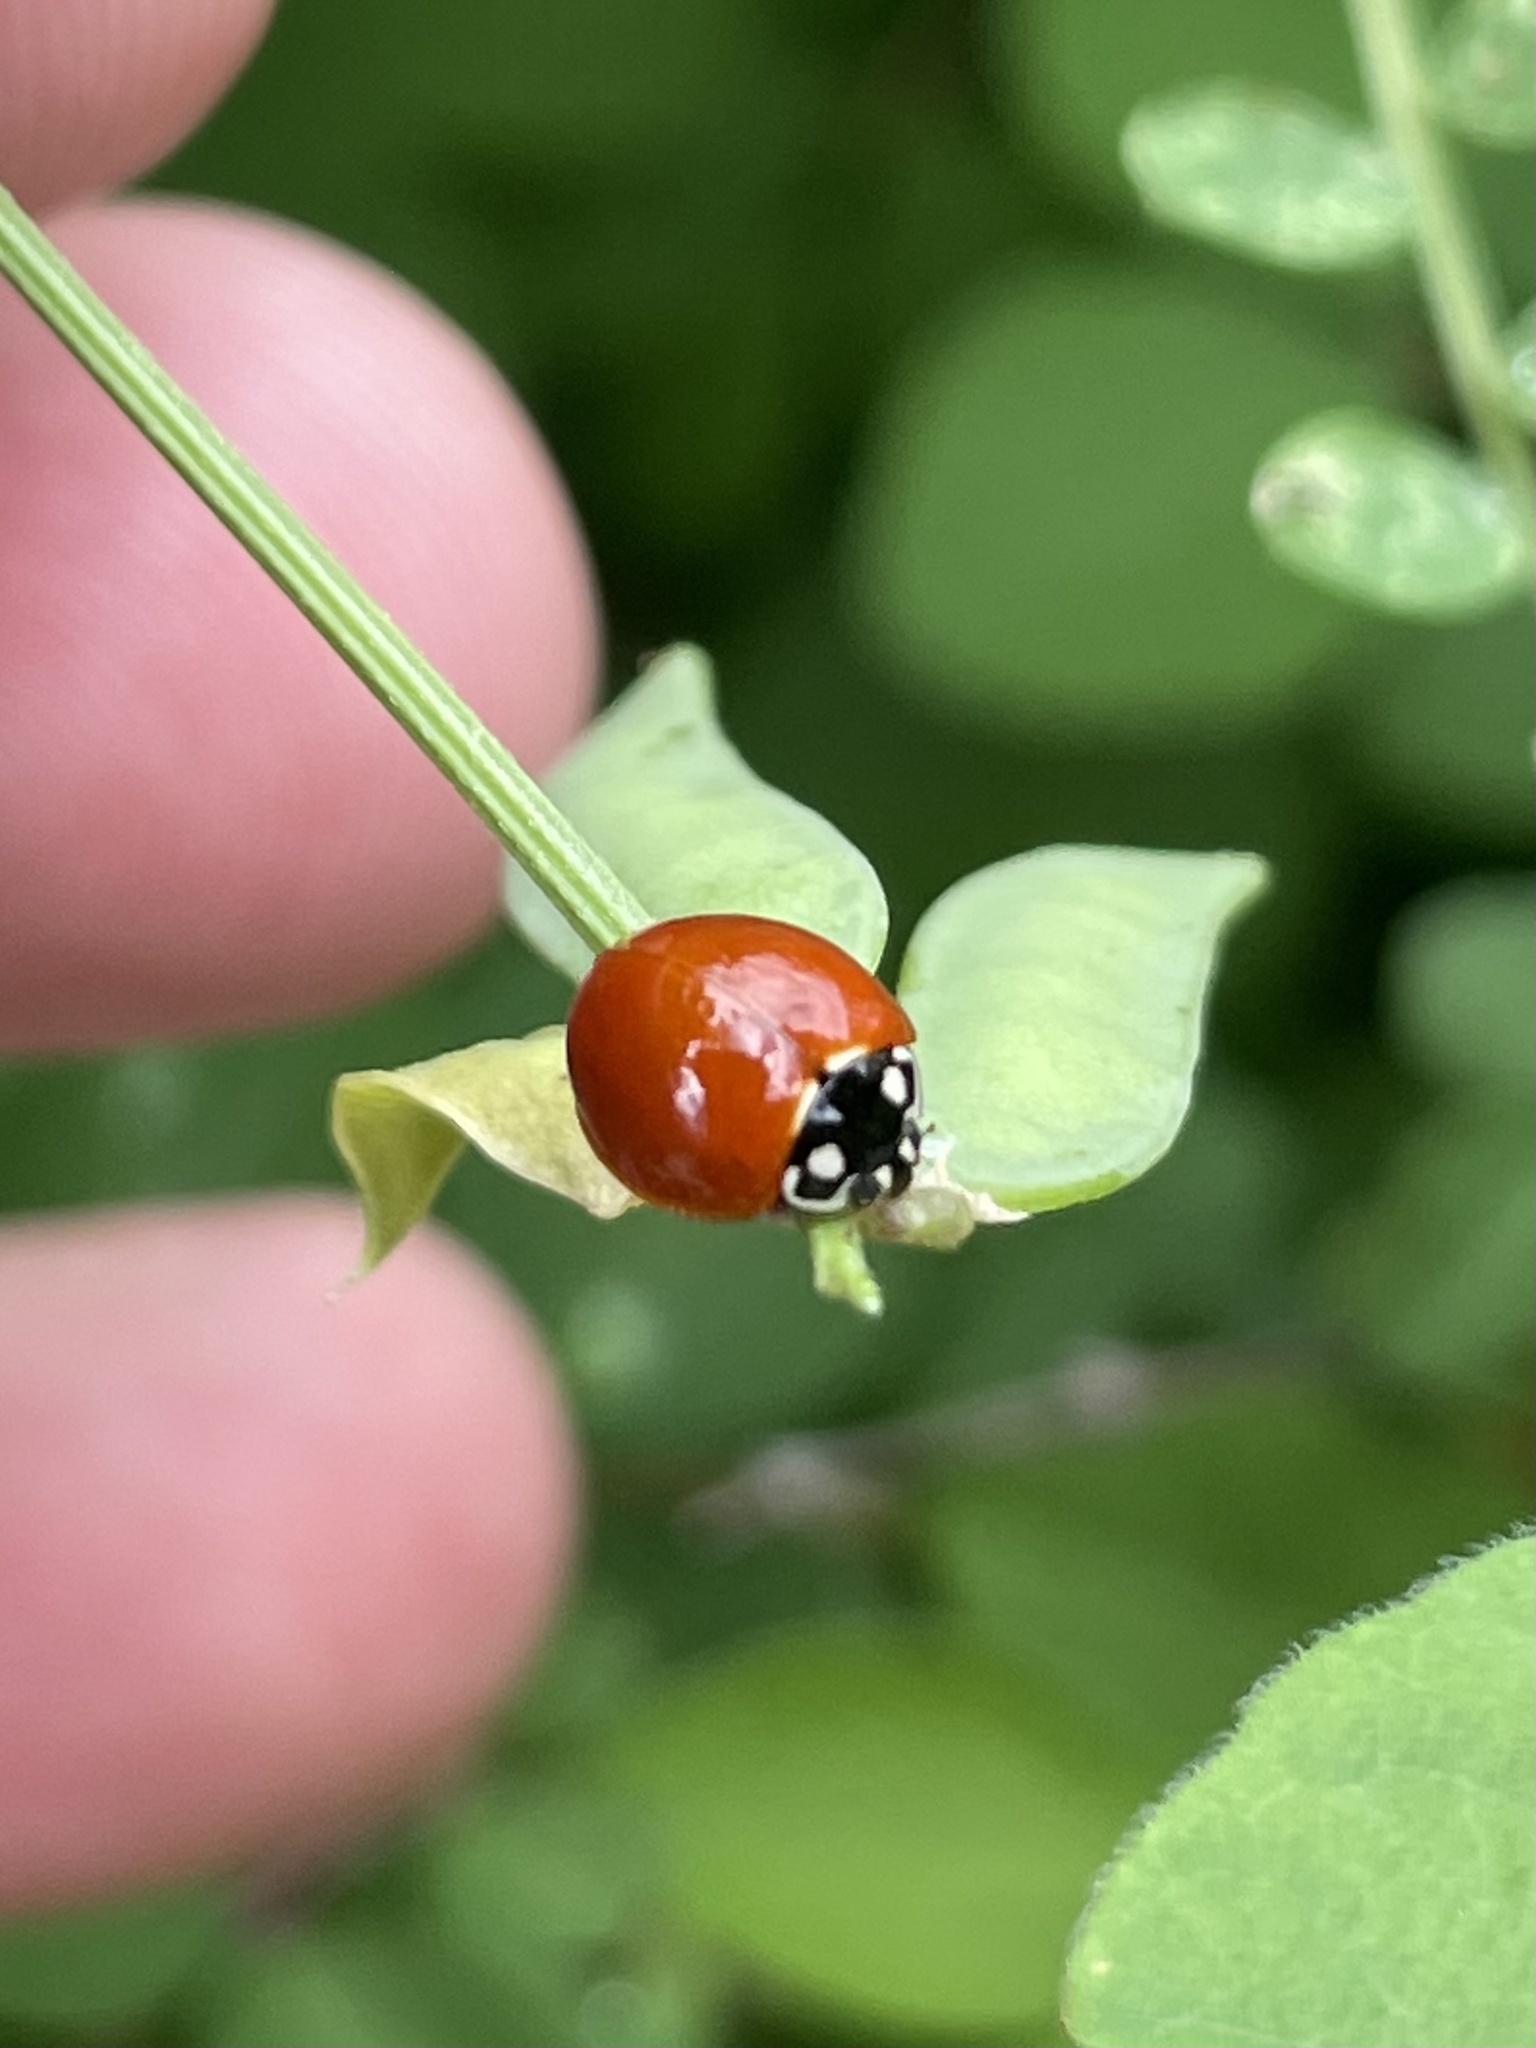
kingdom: Animalia
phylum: Arthropoda
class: Insecta
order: Coleoptera
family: Coccinellidae
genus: Cycloneda
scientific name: Cycloneda sanguinea
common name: Ladybird beetle
